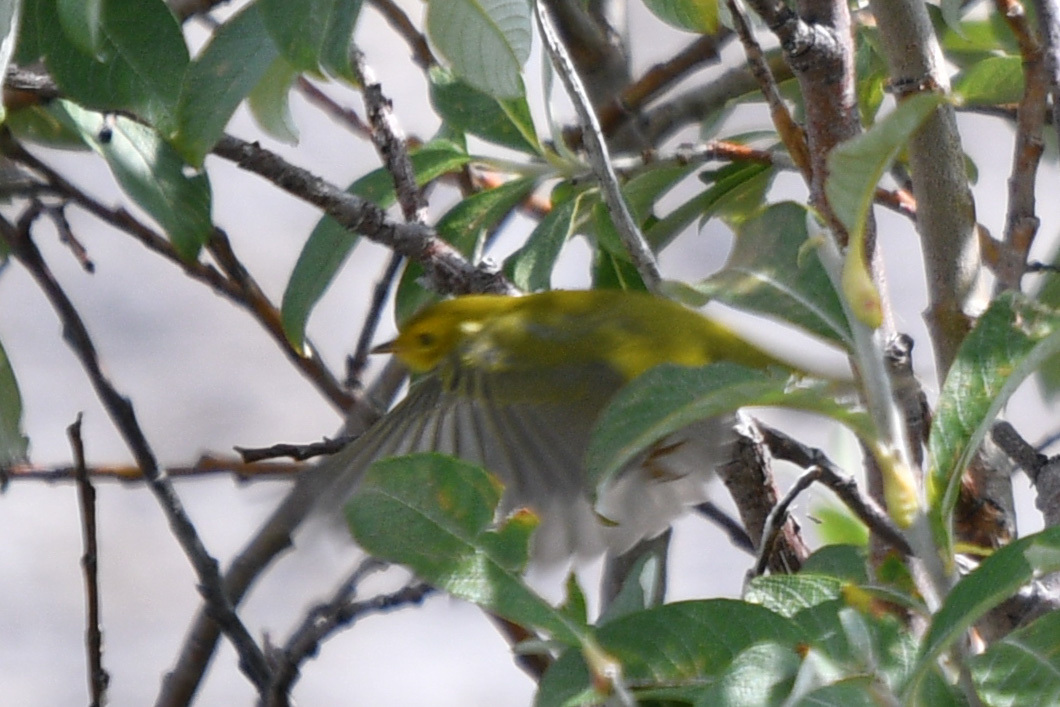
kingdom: Animalia
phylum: Chordata
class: Aves
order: Passeriformes
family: Parulidae
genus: Cardellina
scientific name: Cardellina pusilla
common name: Wilson's warbler
